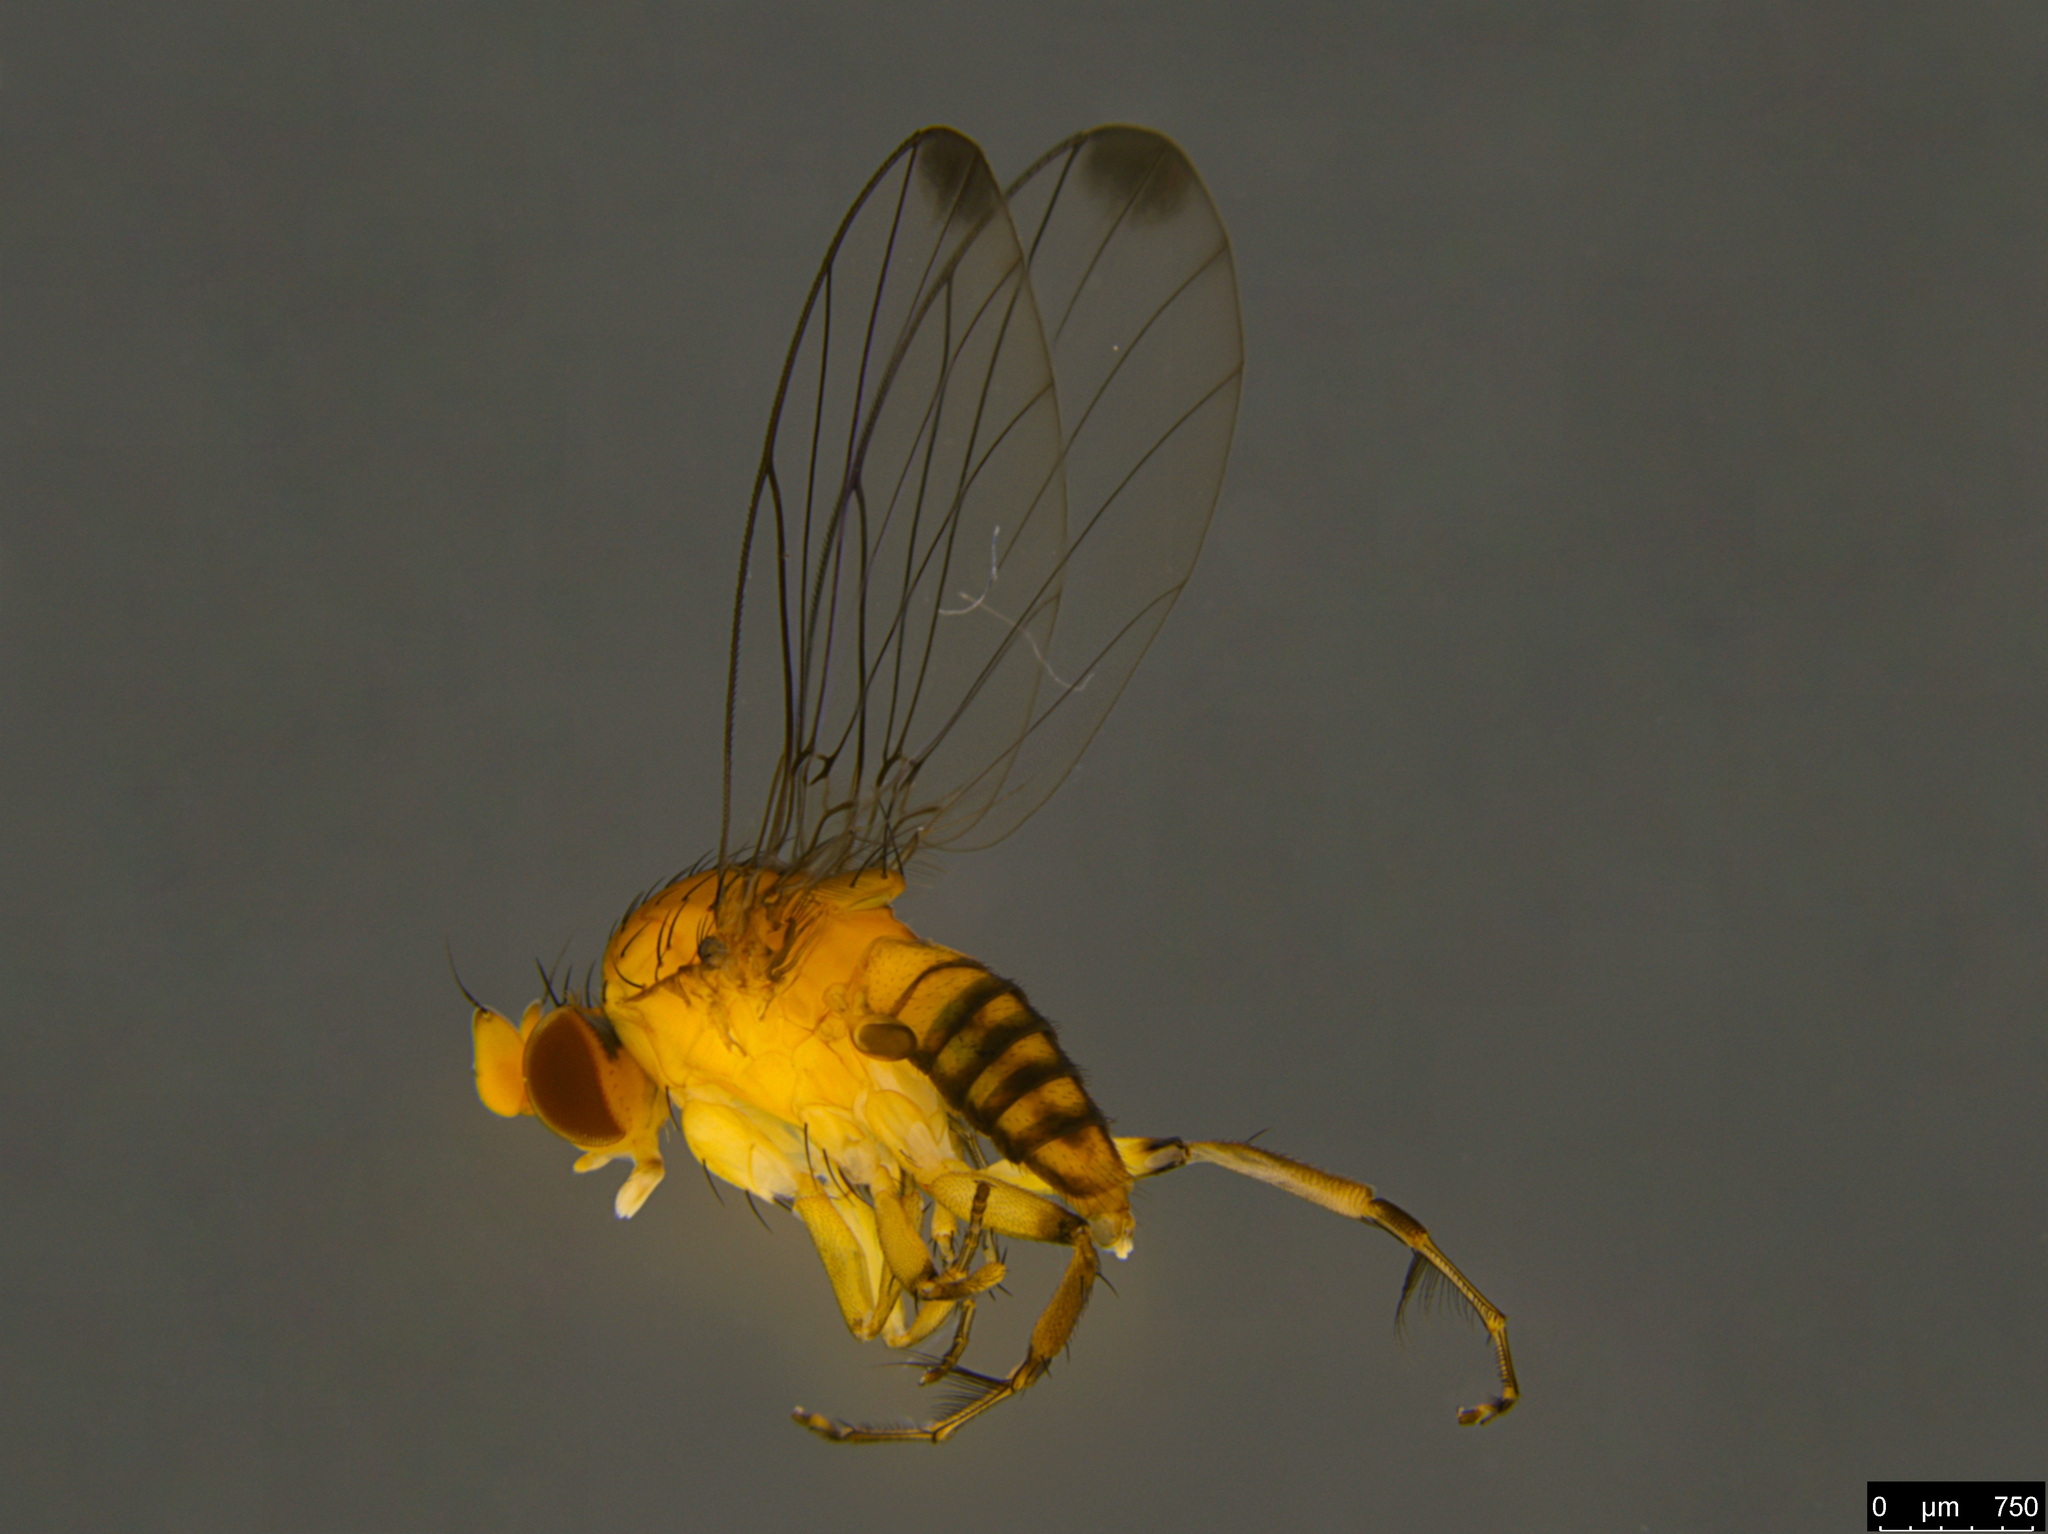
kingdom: Animalia
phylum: Arthropoda
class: Insecta
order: Diptera
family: Phoridae
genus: Sciadocera
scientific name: Sciadocera rufomaculata
